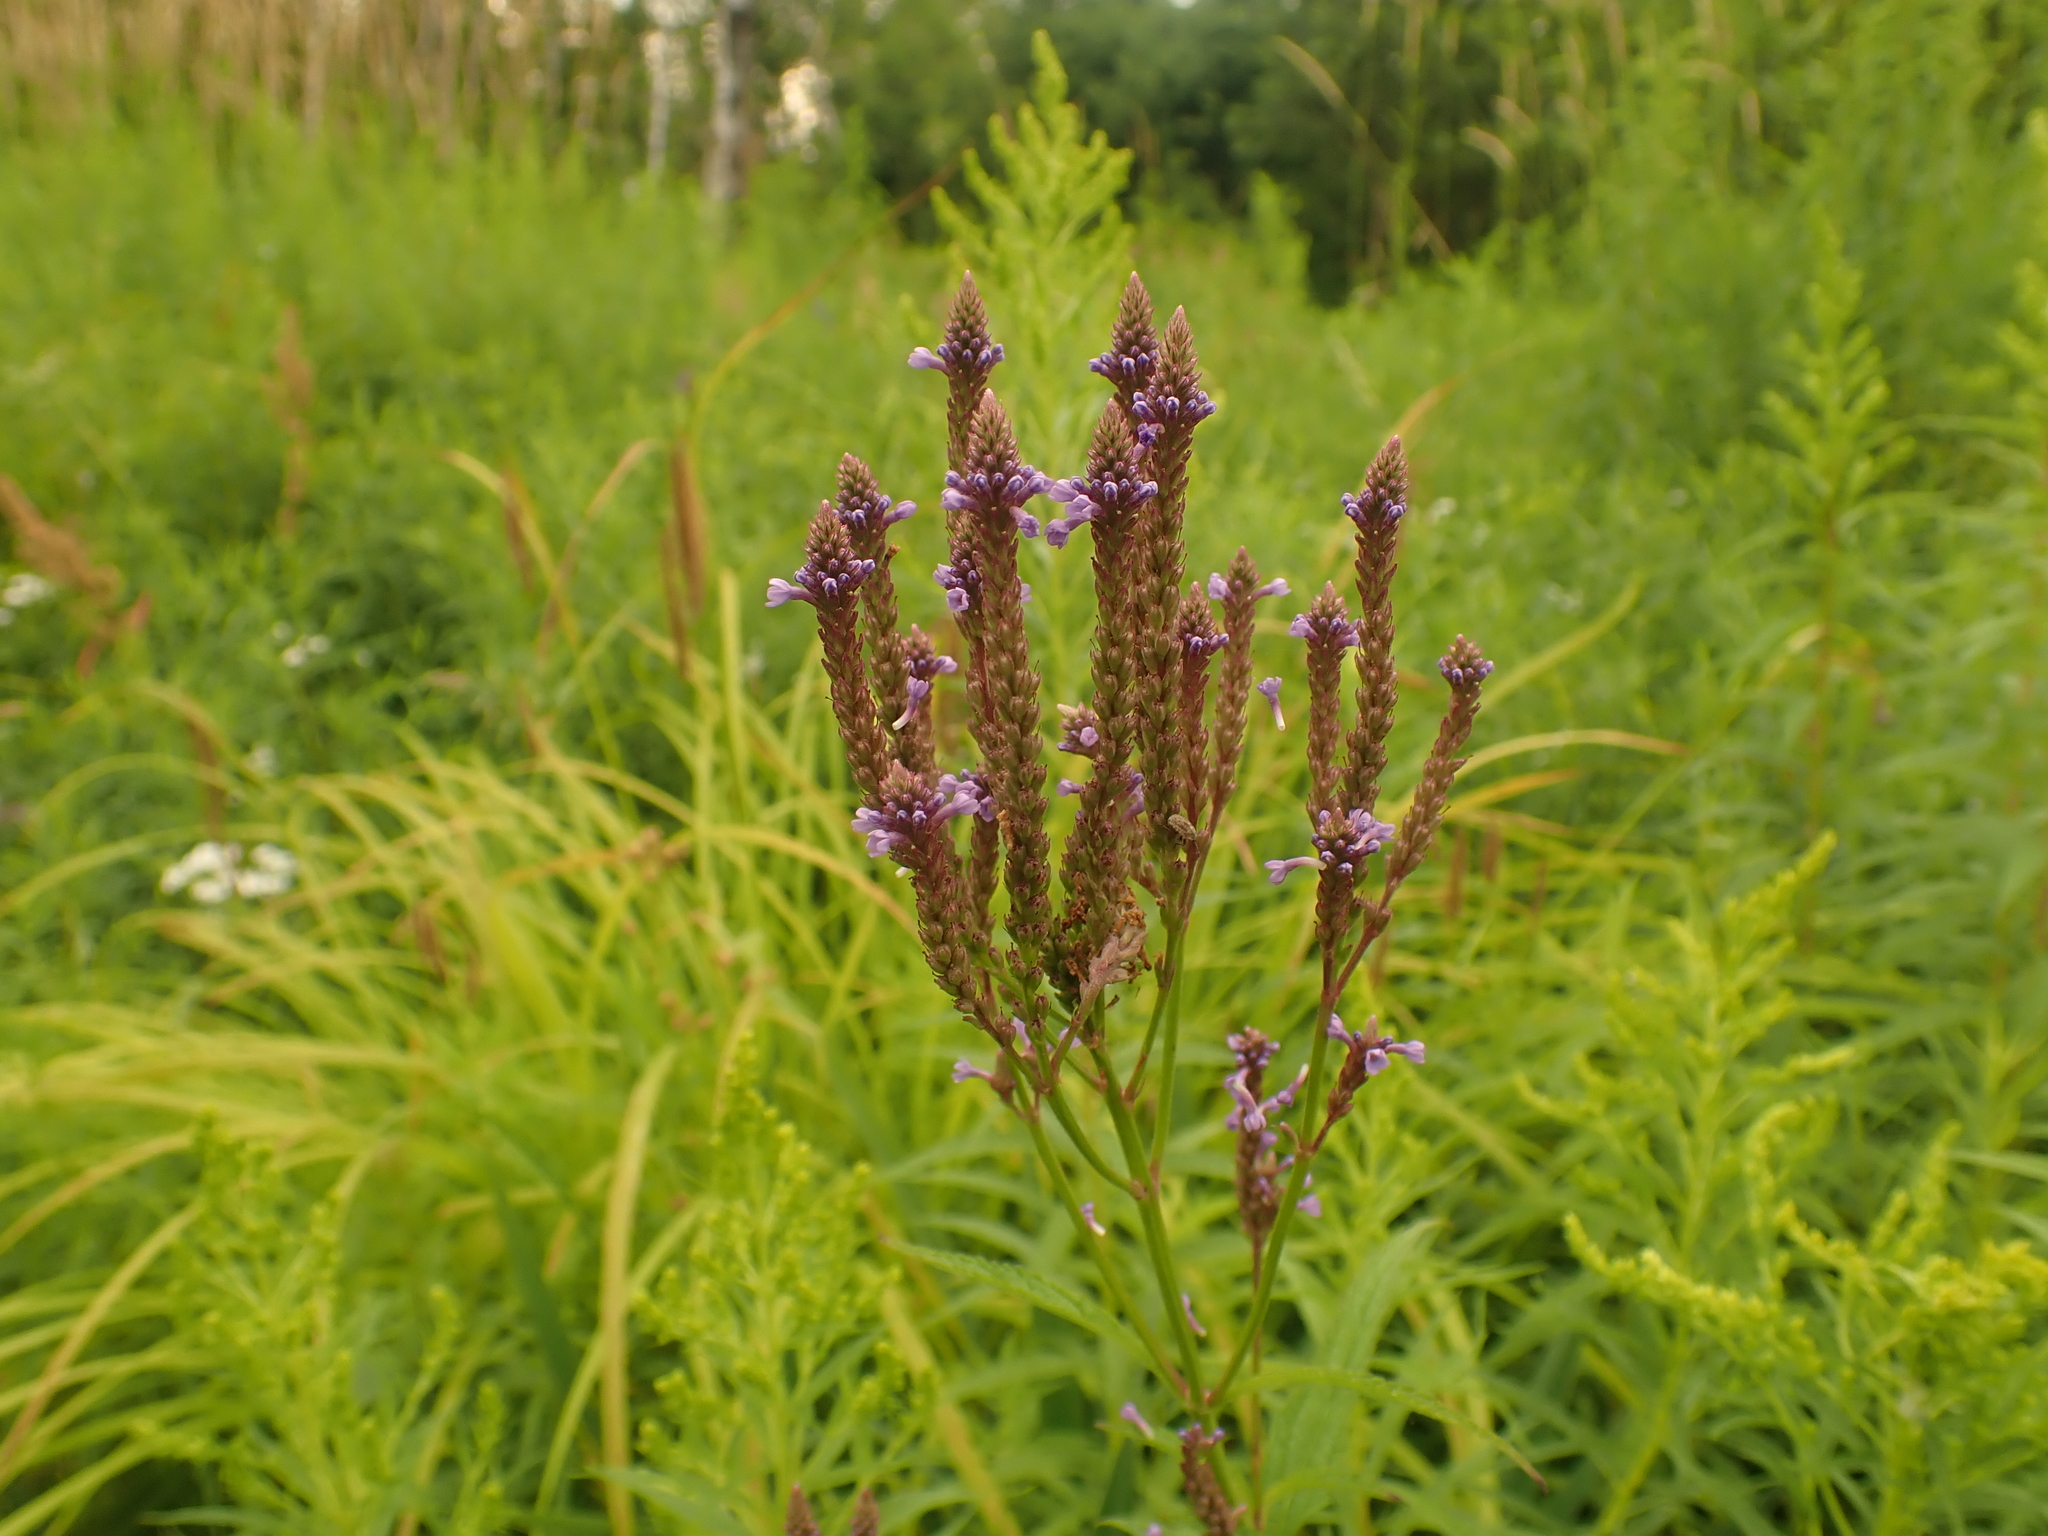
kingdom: Plantae
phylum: Tracheophyta
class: Magnoliopsida
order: Lamiales
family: Verbenaceae
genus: Verbena
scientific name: Verbena hastata
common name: American blue vervain
